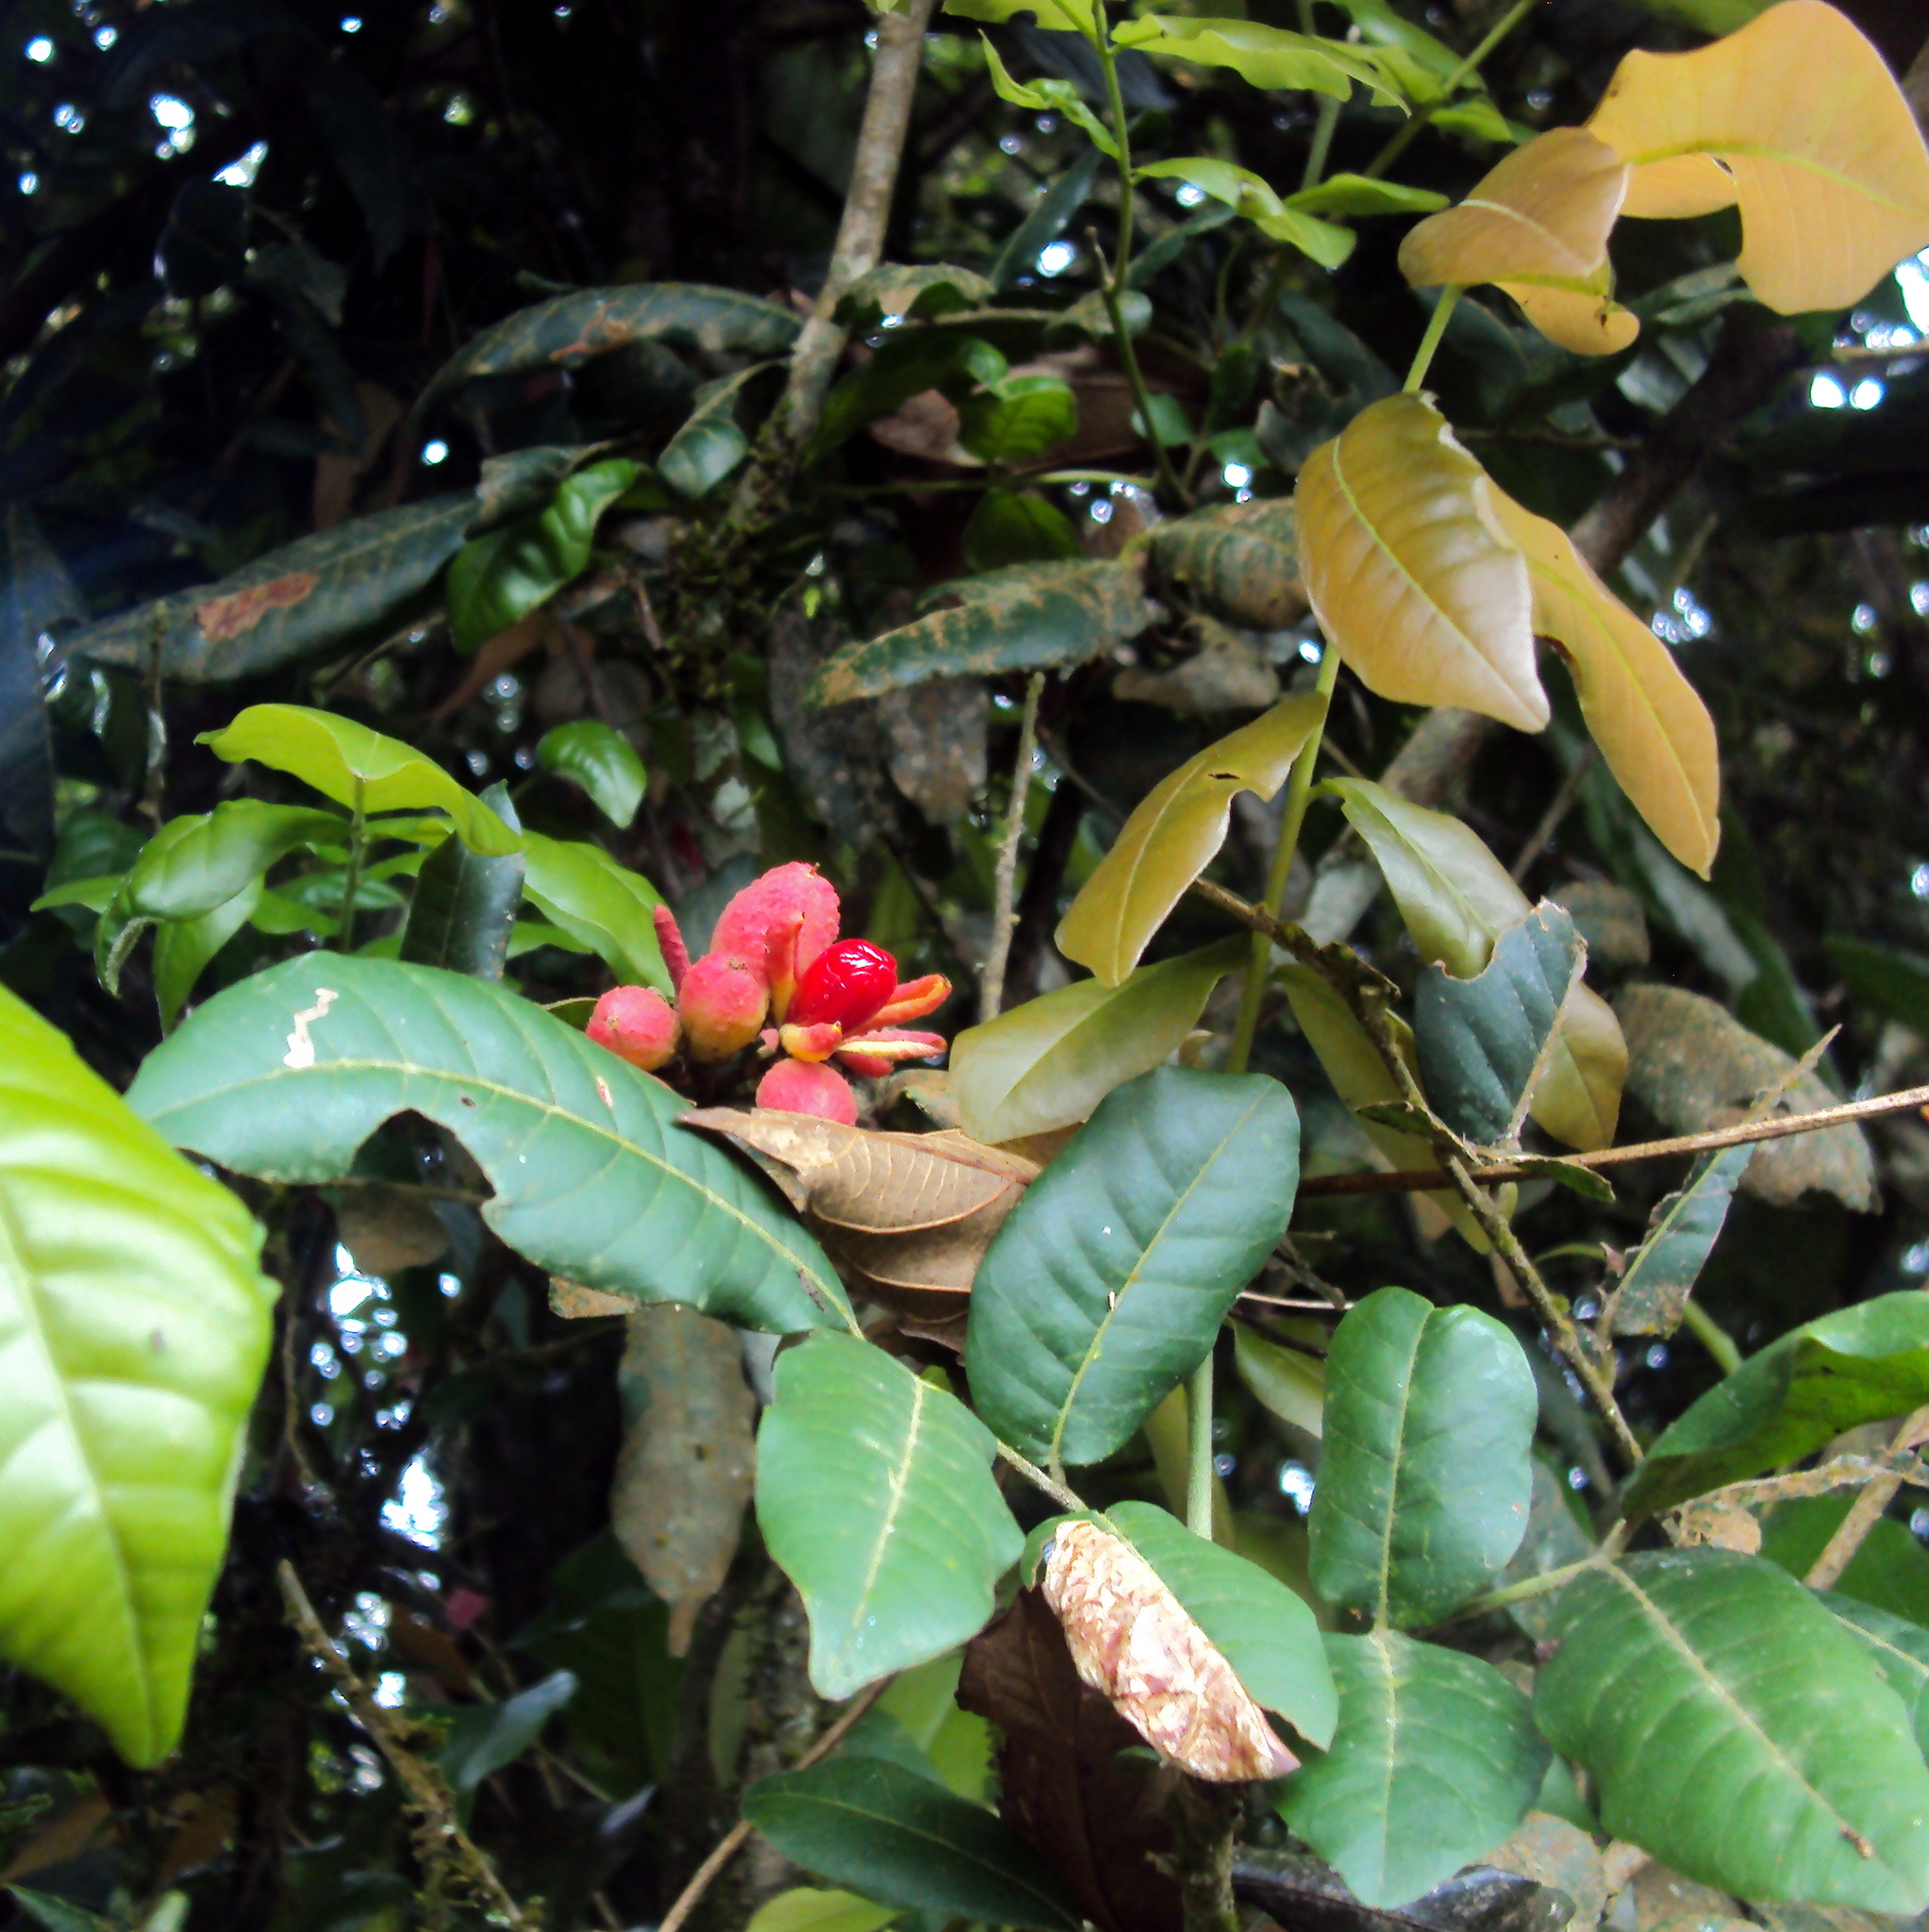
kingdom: Plantae
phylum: Tracheophyta
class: Magnoliopsida
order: Sapindales
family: Meliaceae
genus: Trichilia
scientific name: Trichilia catigua
